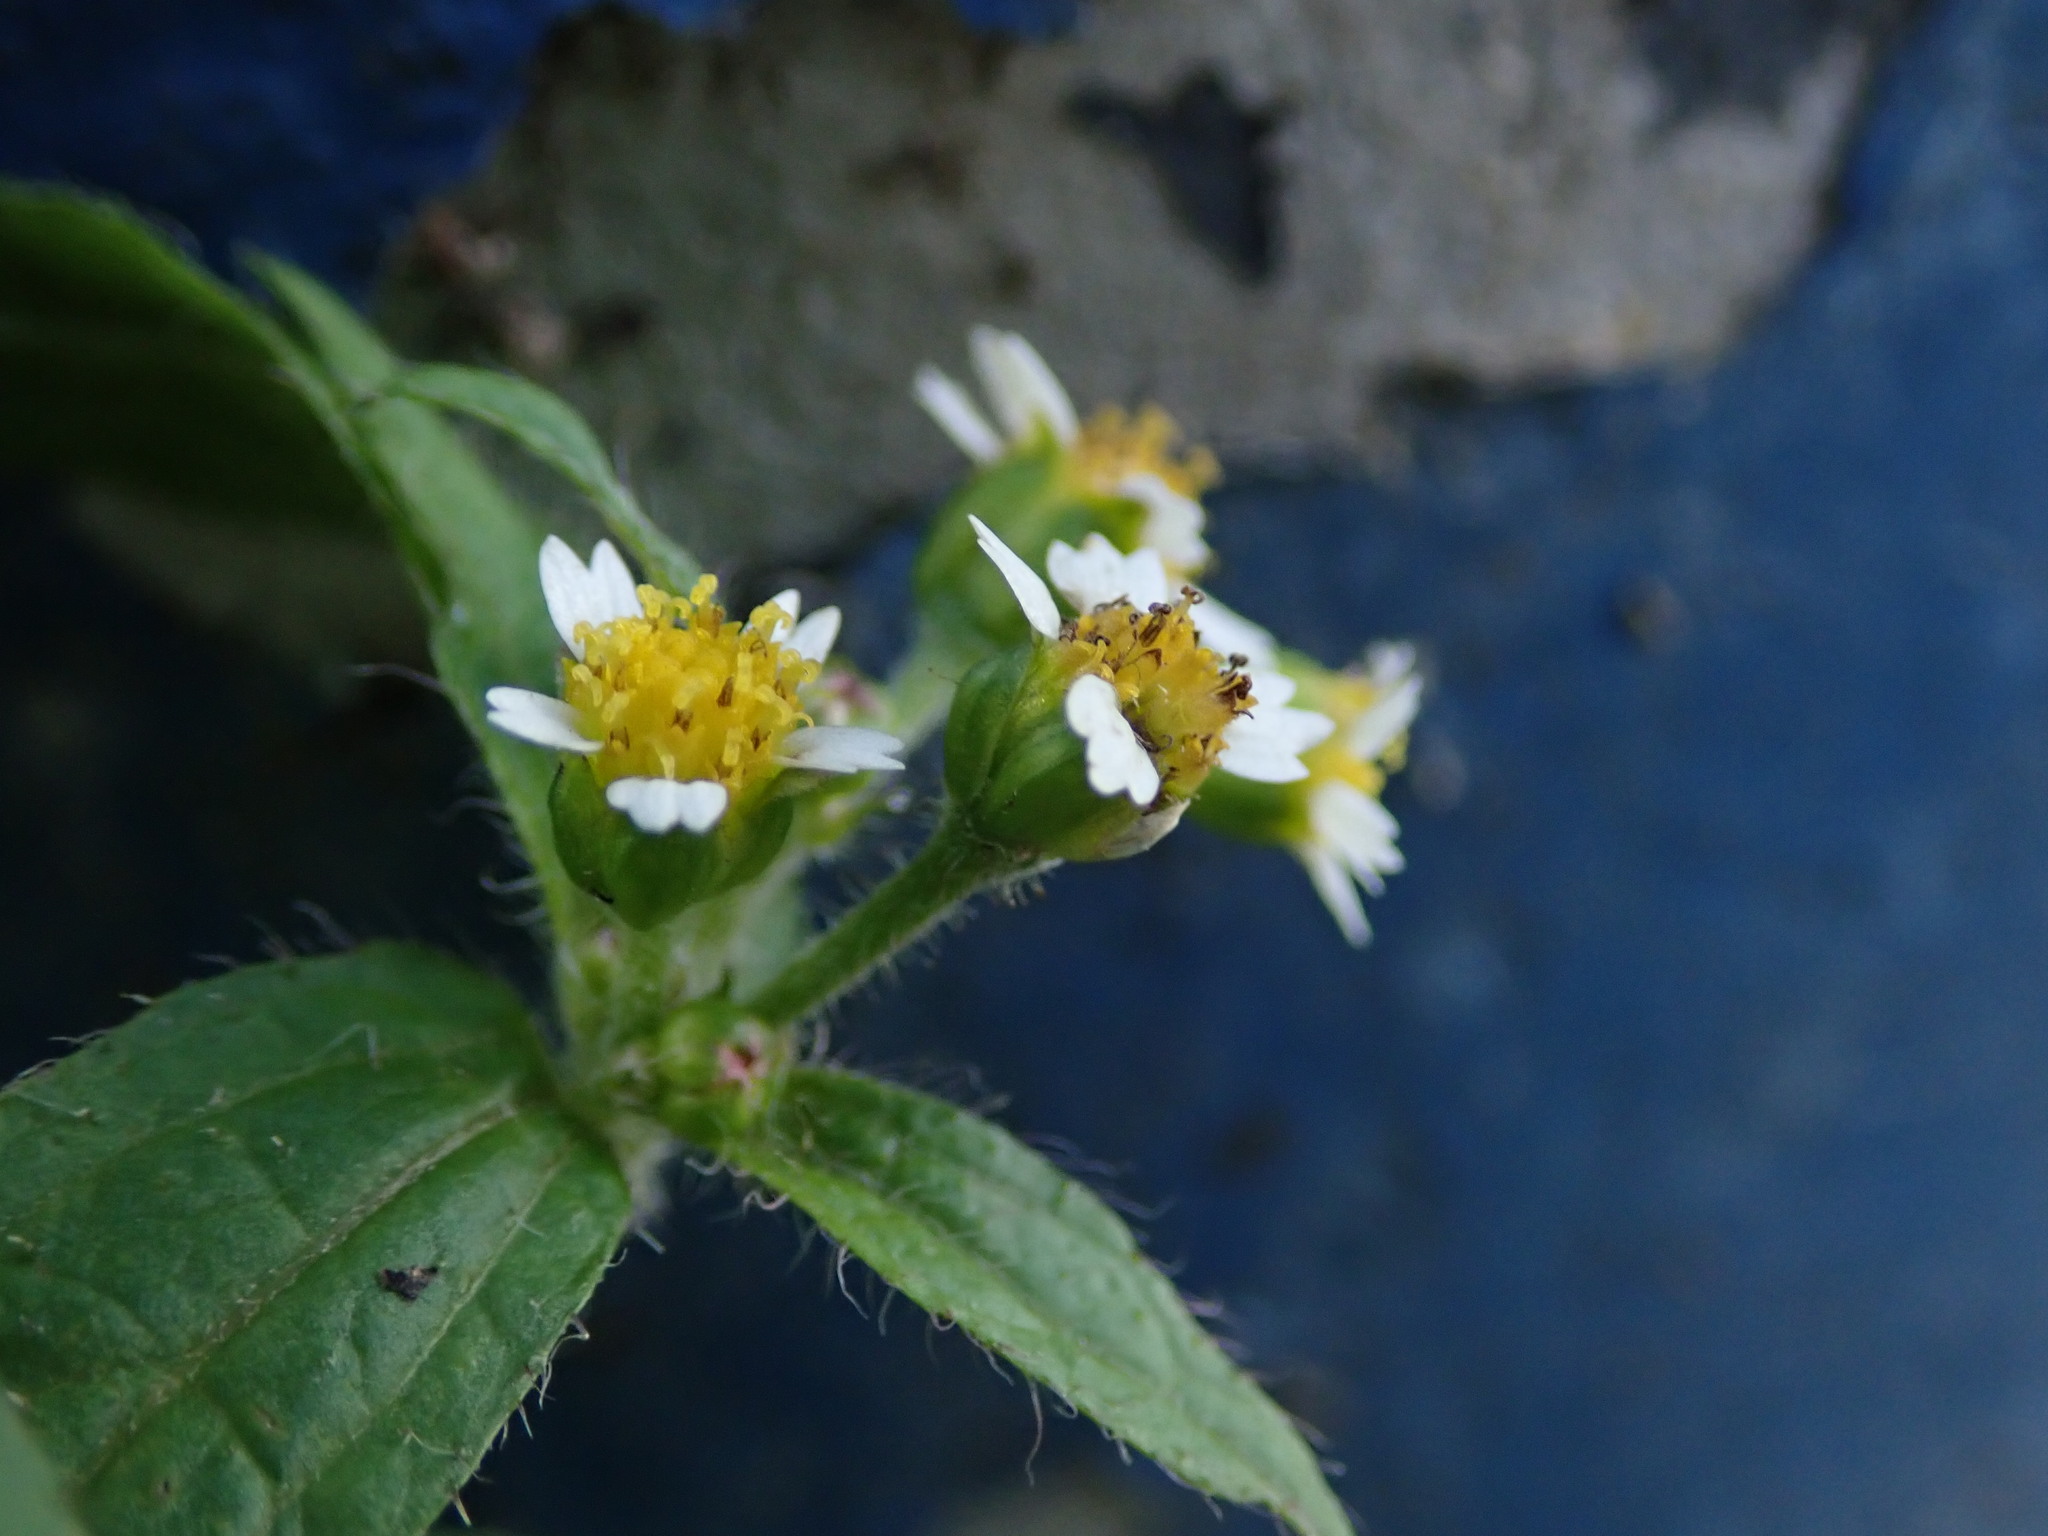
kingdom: Plantae
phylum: Tracheophyta
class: Magnoliopsida
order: Asterales
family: Asteraceae
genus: Galinsoga
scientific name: Galinsoga quadriradiata
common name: Shaggy soldier
